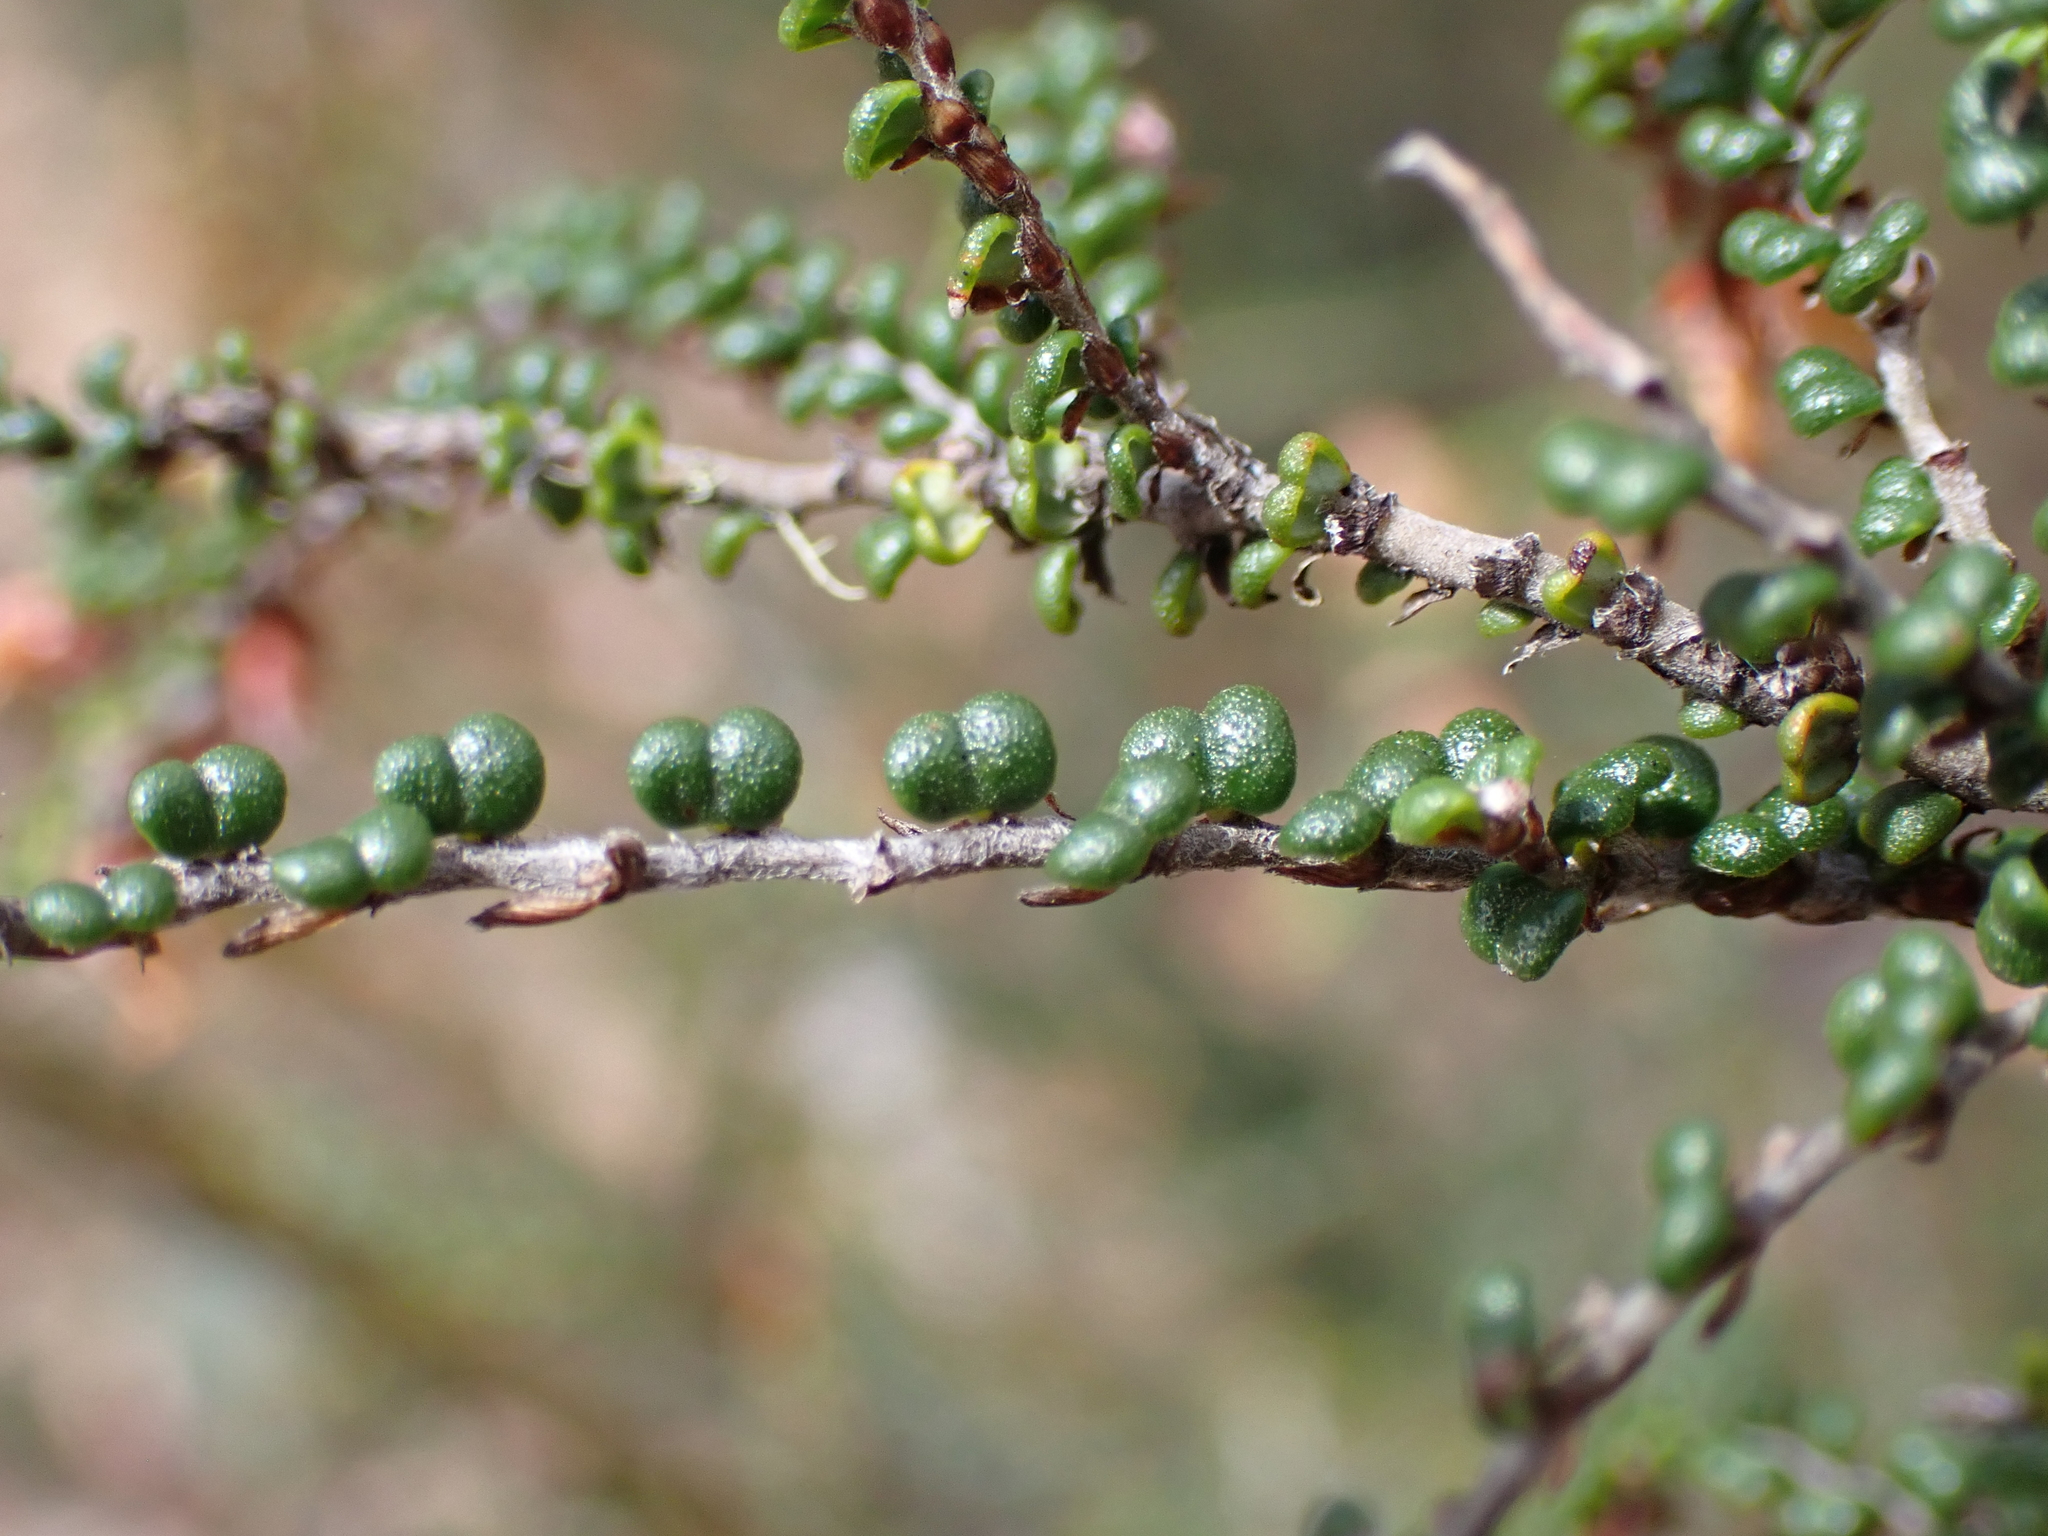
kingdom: Plantae
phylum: Tracheophyta
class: Magnoliopsida
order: Fabales
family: Fabaceae
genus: Bossiaea
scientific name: Bossiaea distichoclada
